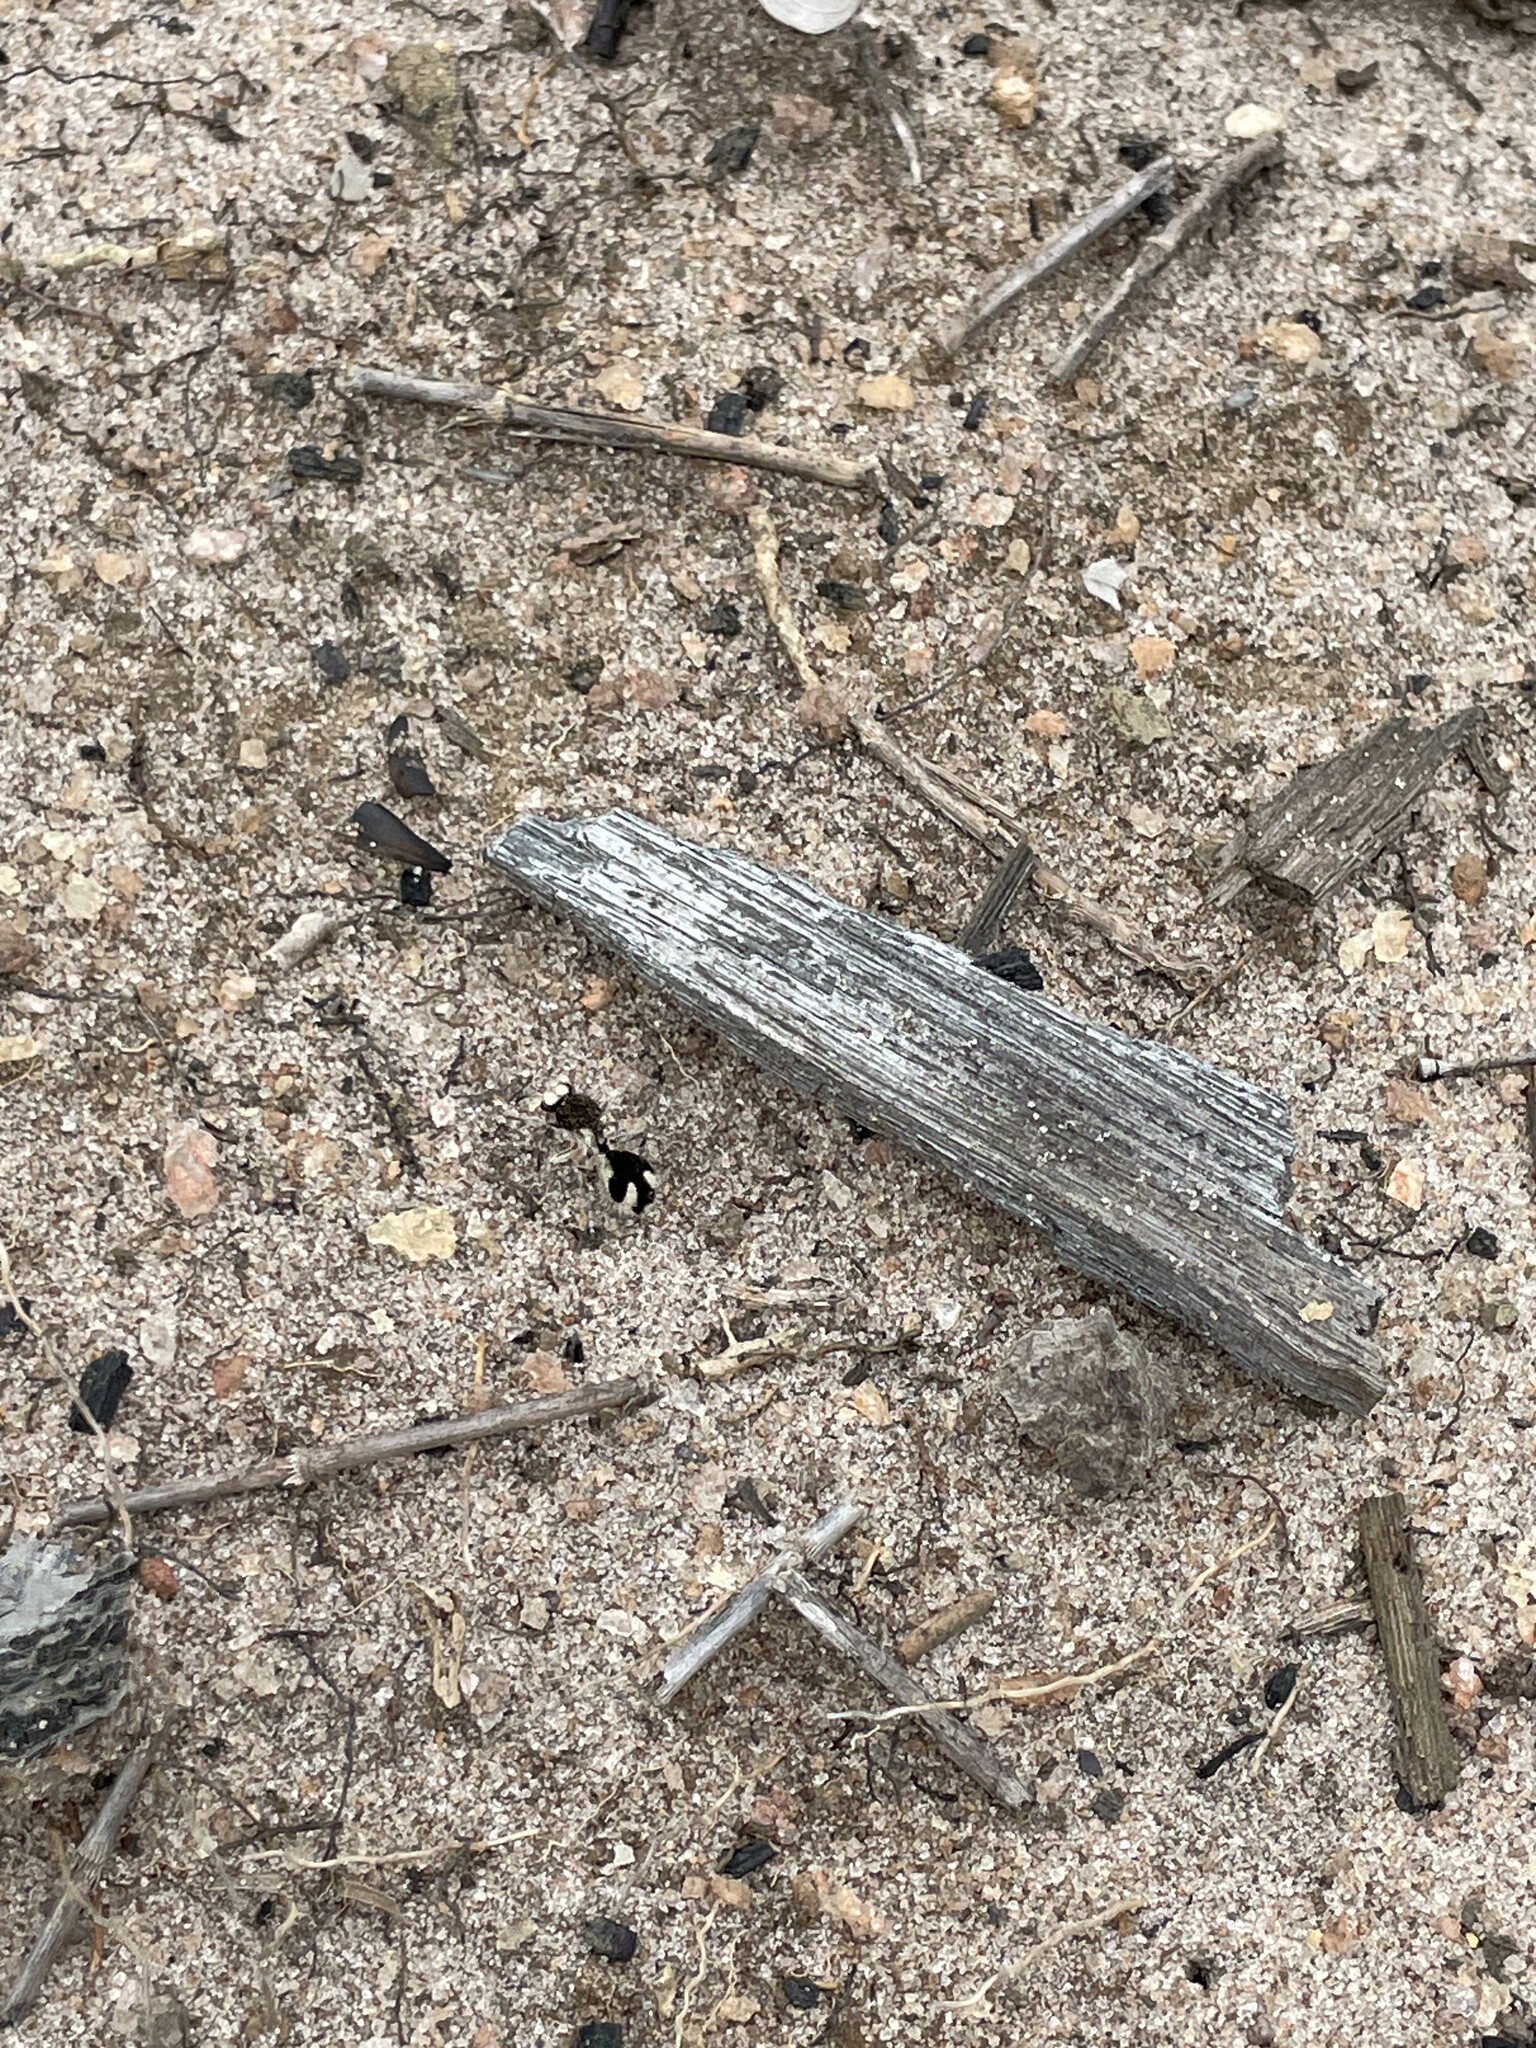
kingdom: Animalia
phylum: Arthropoda
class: Insecta
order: Hymenoptera
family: Mutillidae
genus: Traumatomutilla
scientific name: Traumatomutilla bifurca
